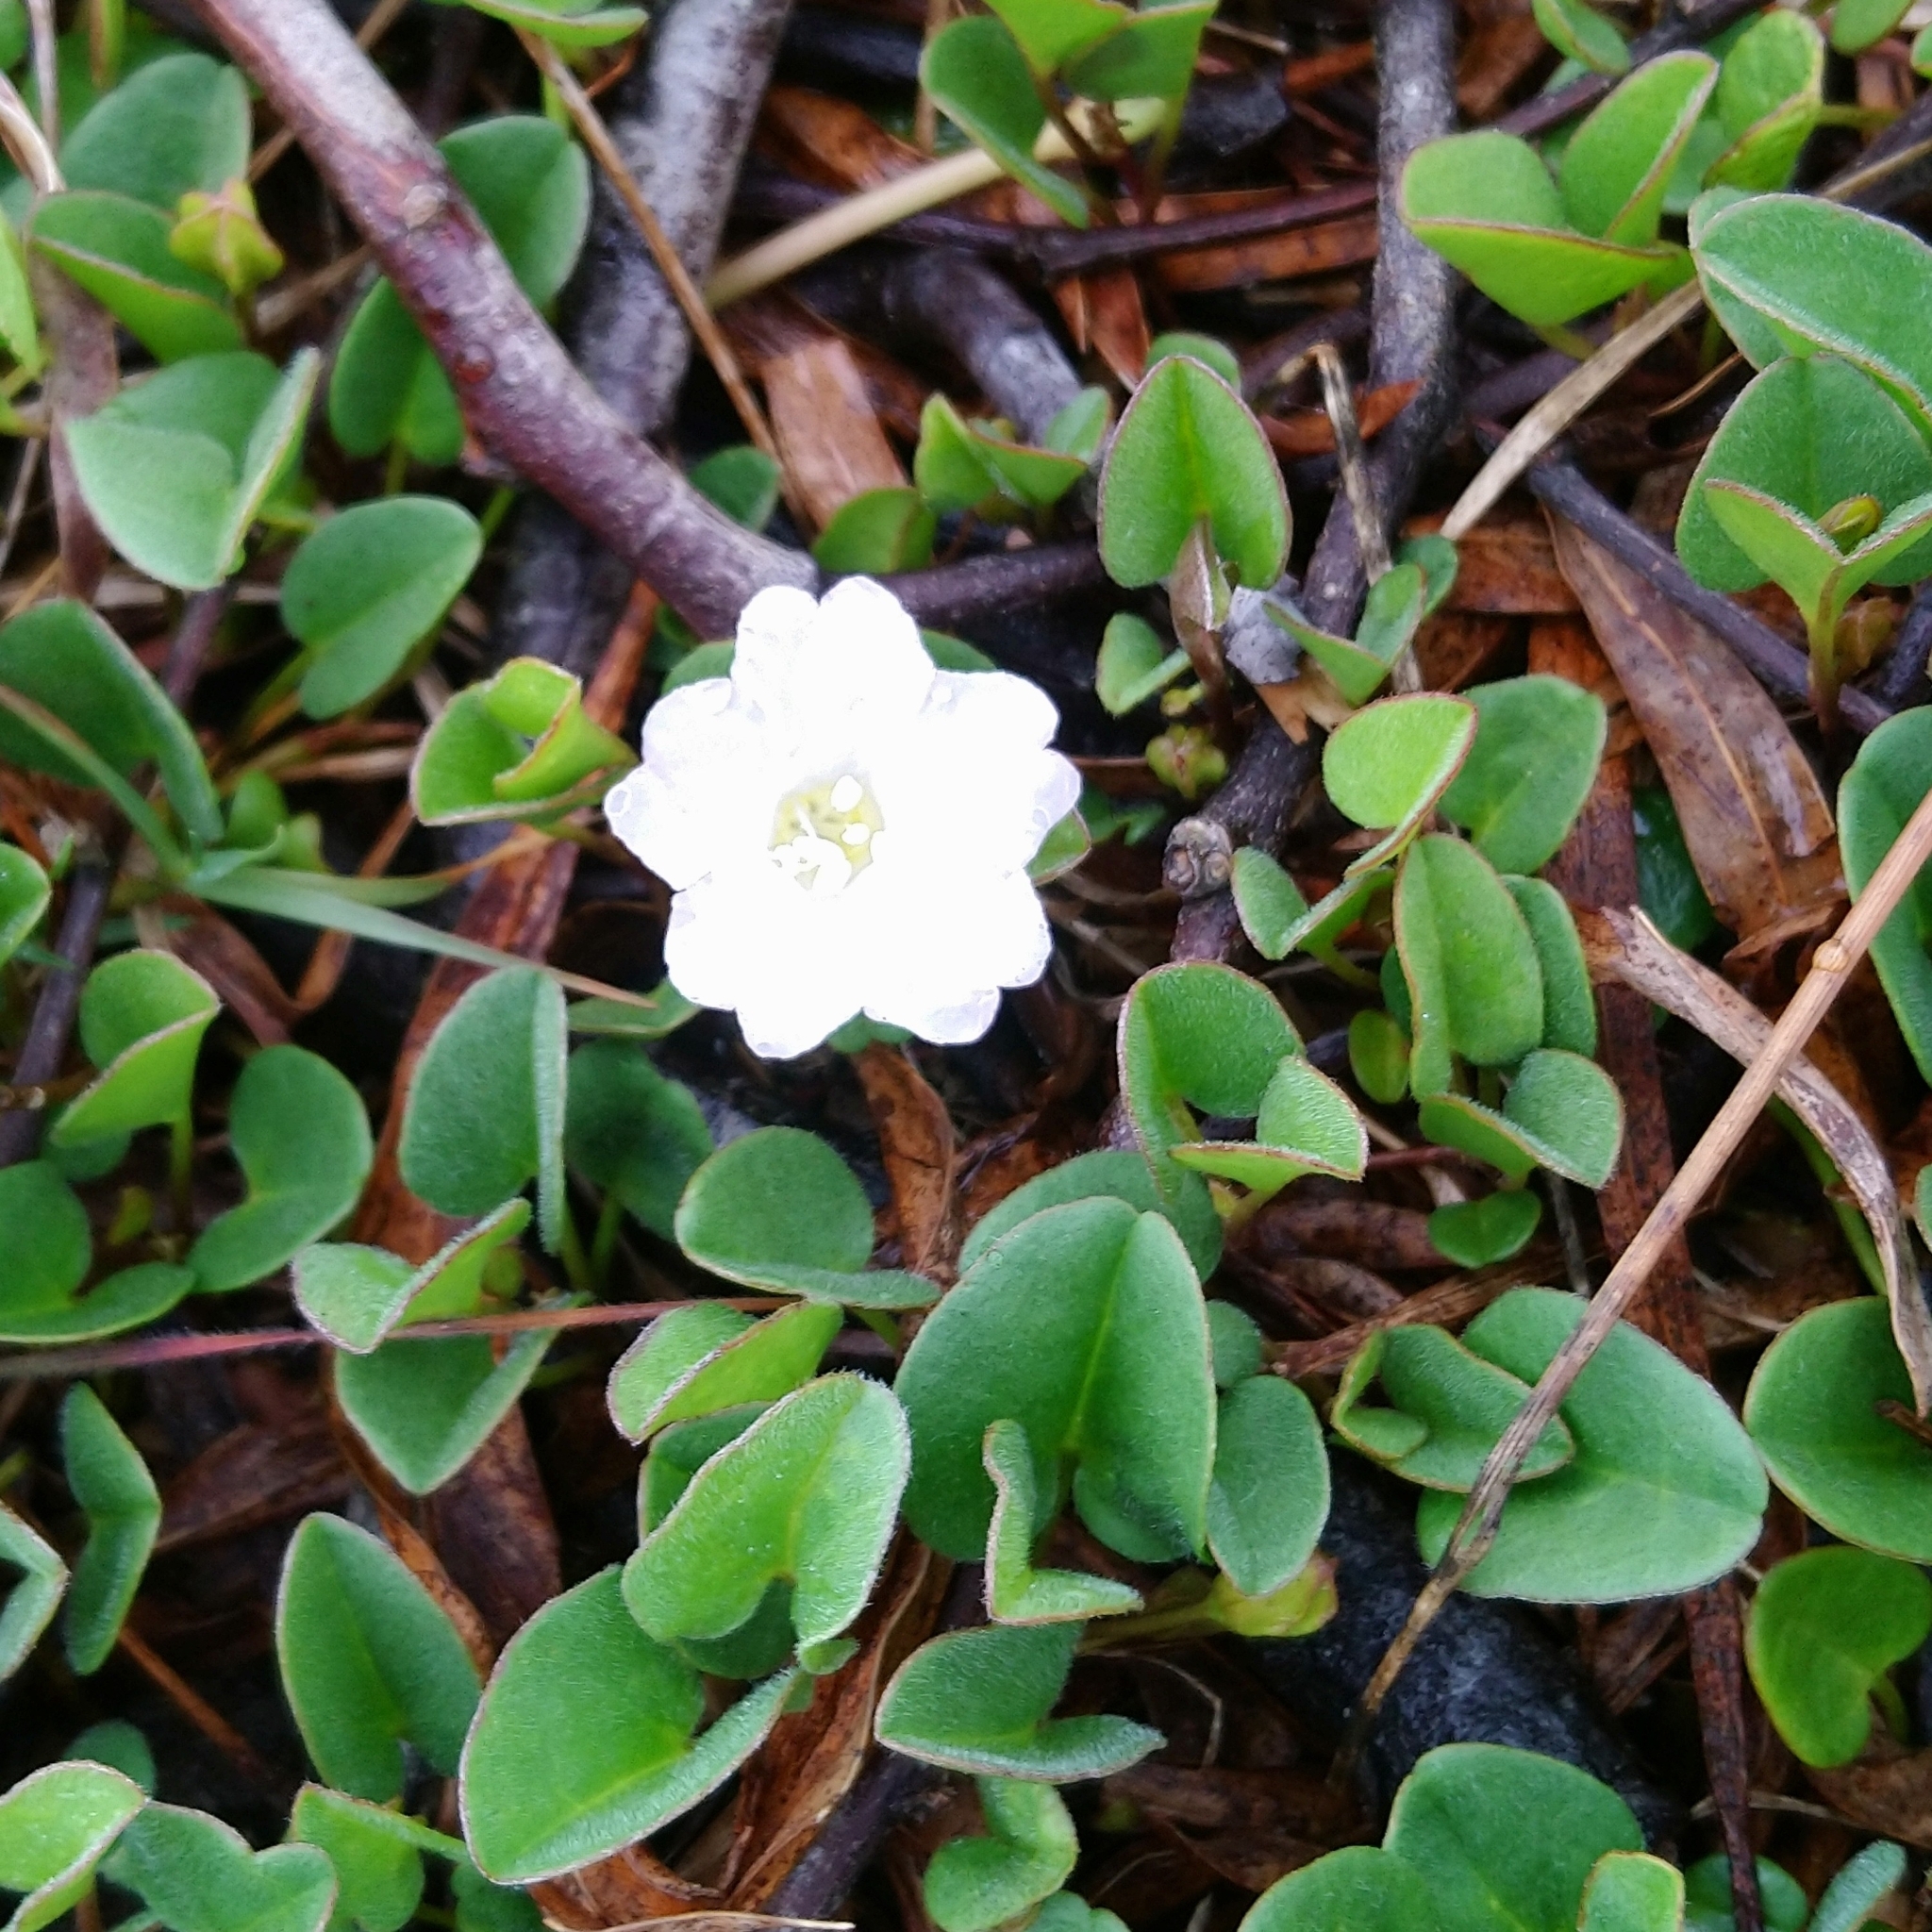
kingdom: Plantae
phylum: Tracheophyta
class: Magnoliopsida
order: Solanales
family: Convolvulaceae
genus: Falkia
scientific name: Falkia repens
